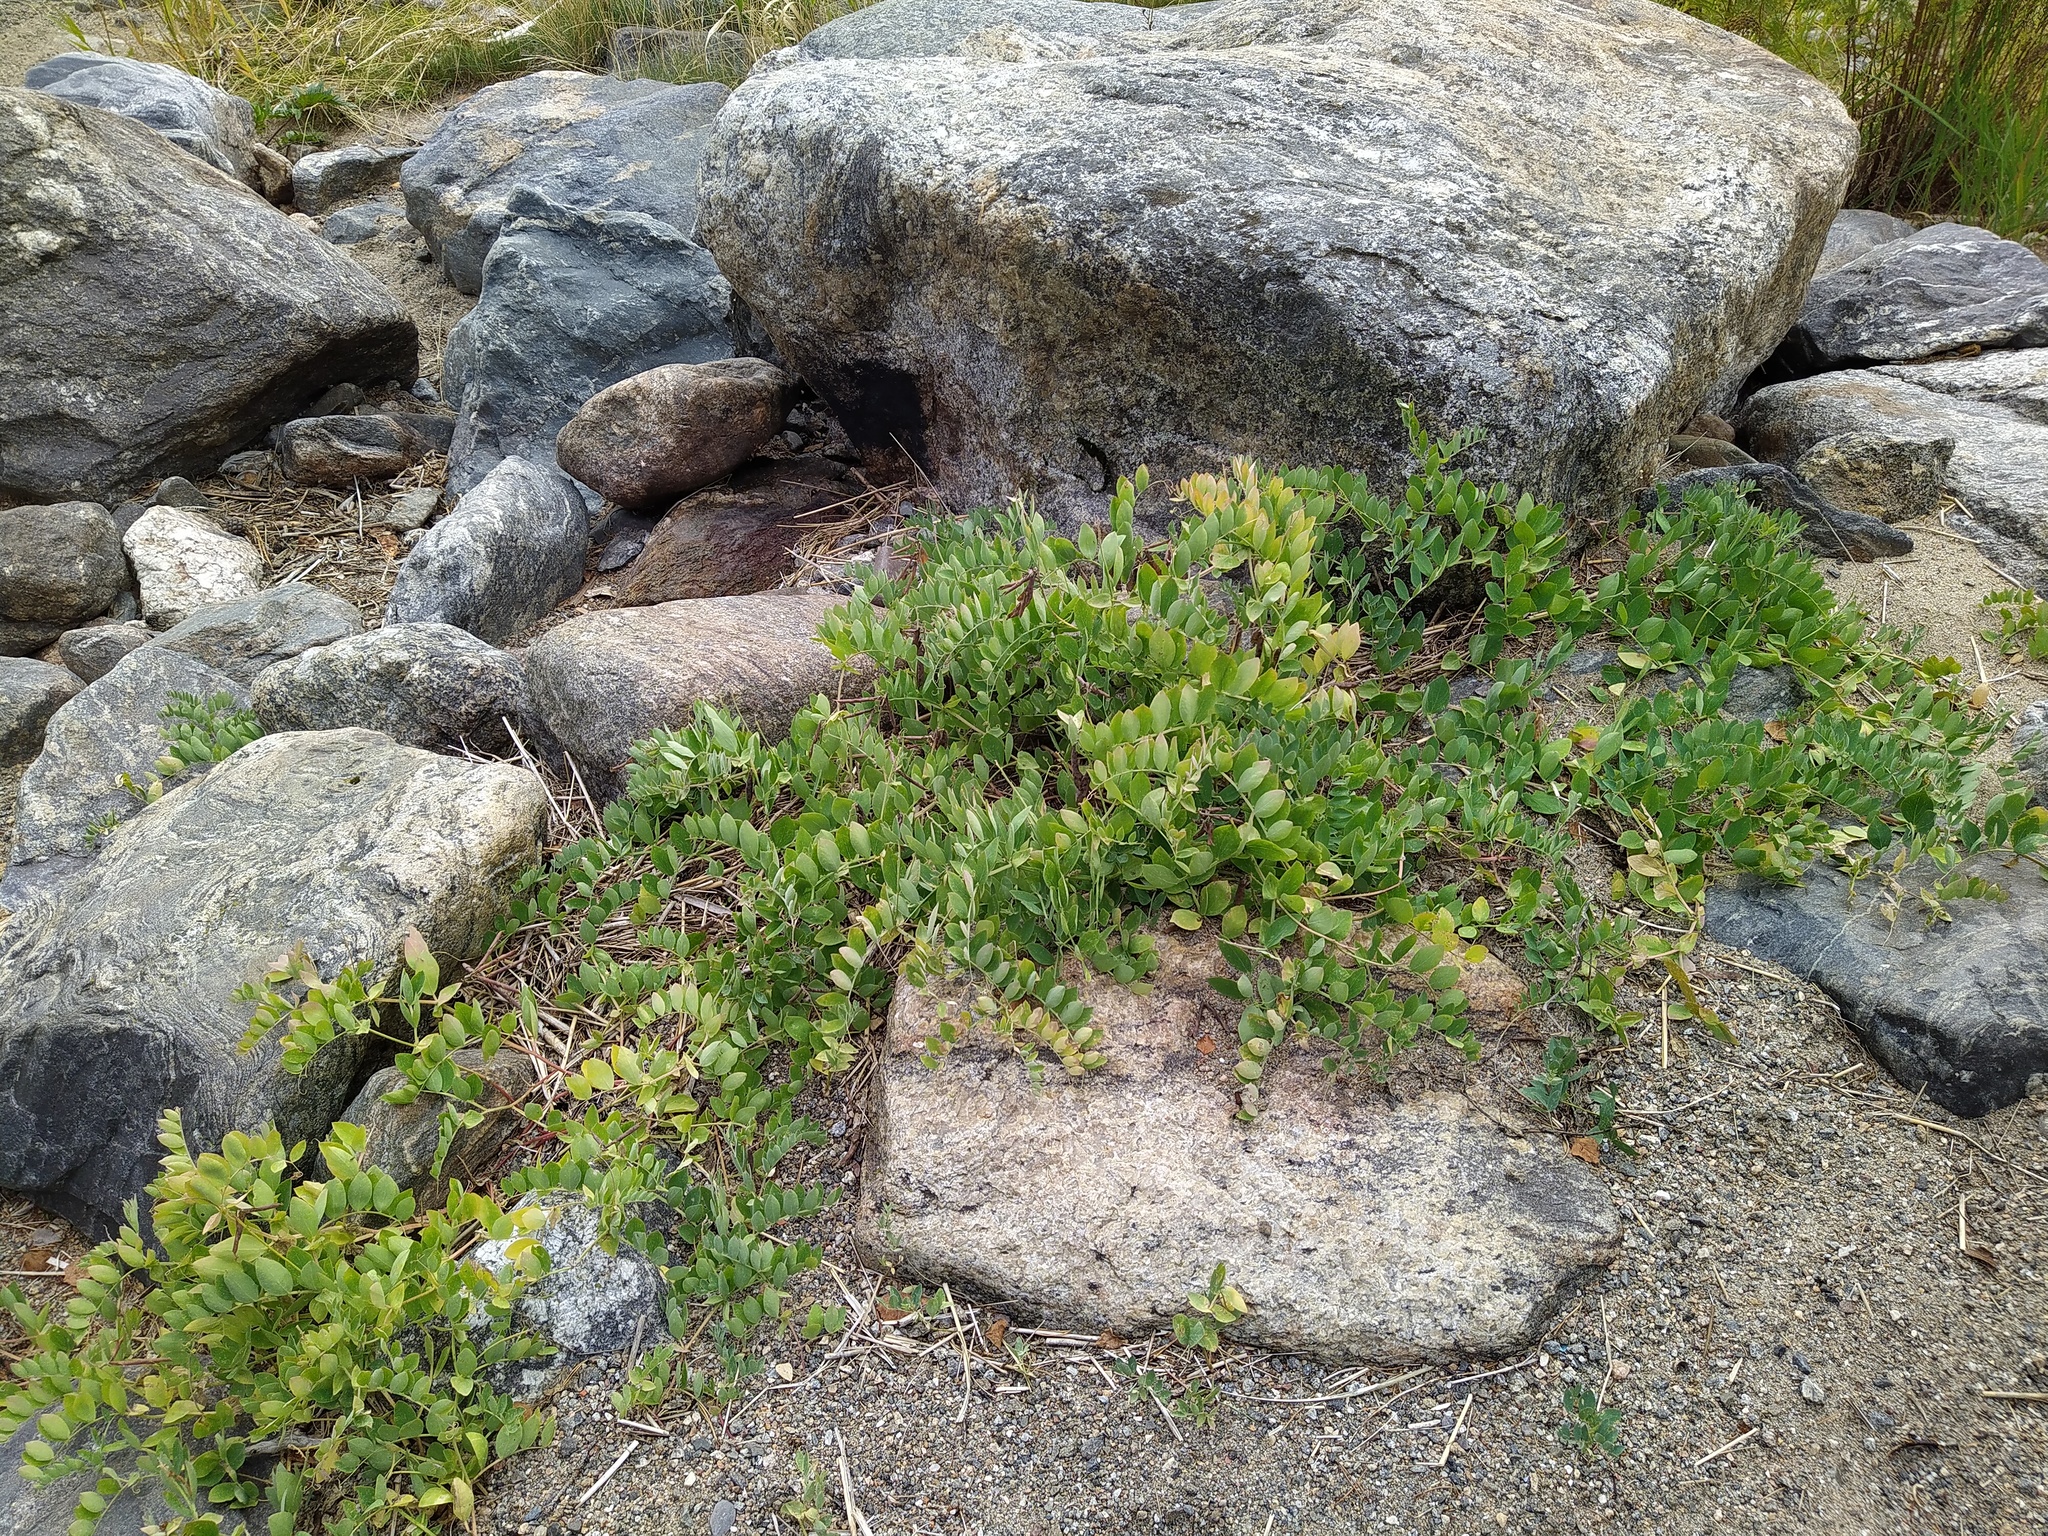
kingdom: Plantae
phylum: Tracheophyta
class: Magnoliopsida
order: Fabales
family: Fabaceae
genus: Lathyrus
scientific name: Lathyrus japonicus
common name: Sea pea
